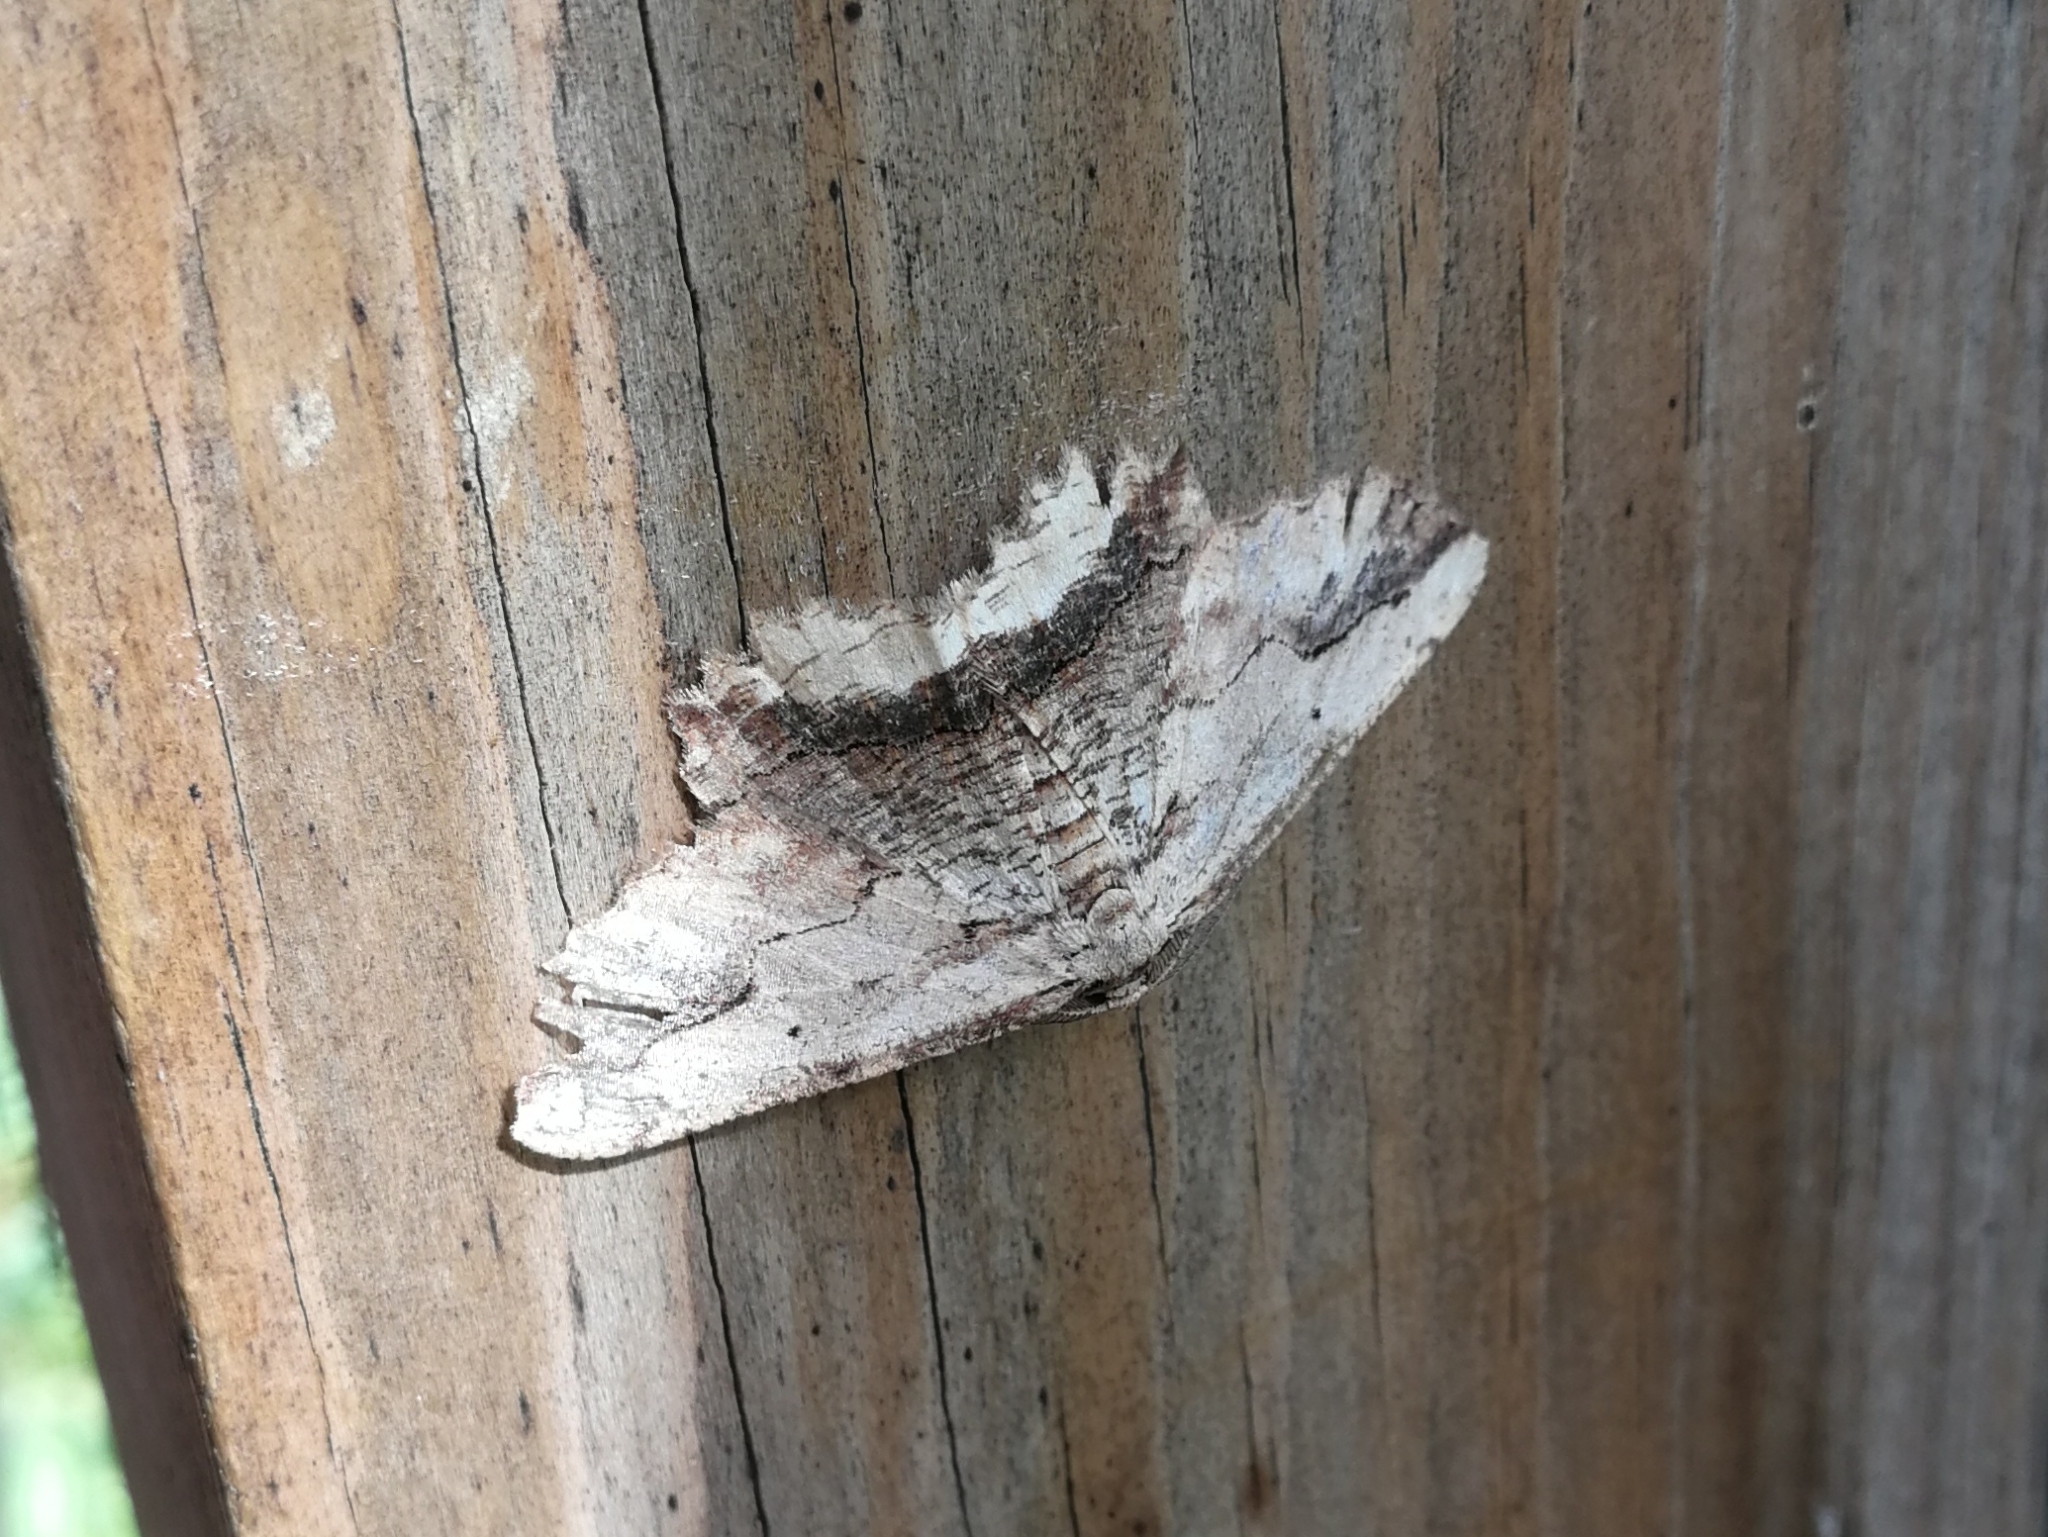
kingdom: Animalia
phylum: Arthropoda
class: Insecta
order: Lepidoptera
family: Geometridae
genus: Menophra
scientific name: Menophra abruptaria
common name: Waved umber
